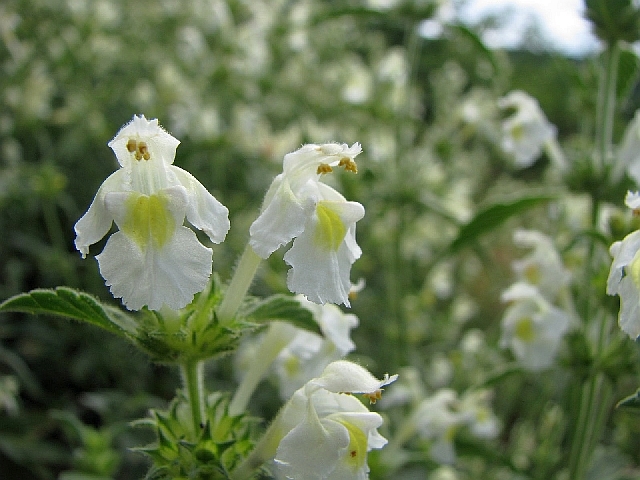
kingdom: Plantae
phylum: Tracheophyta
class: Magnoliopsida
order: Lamiales
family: Lamiaceae
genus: Galeopsis
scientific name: Galeopsis segetum
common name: Downy hemp-nettle
